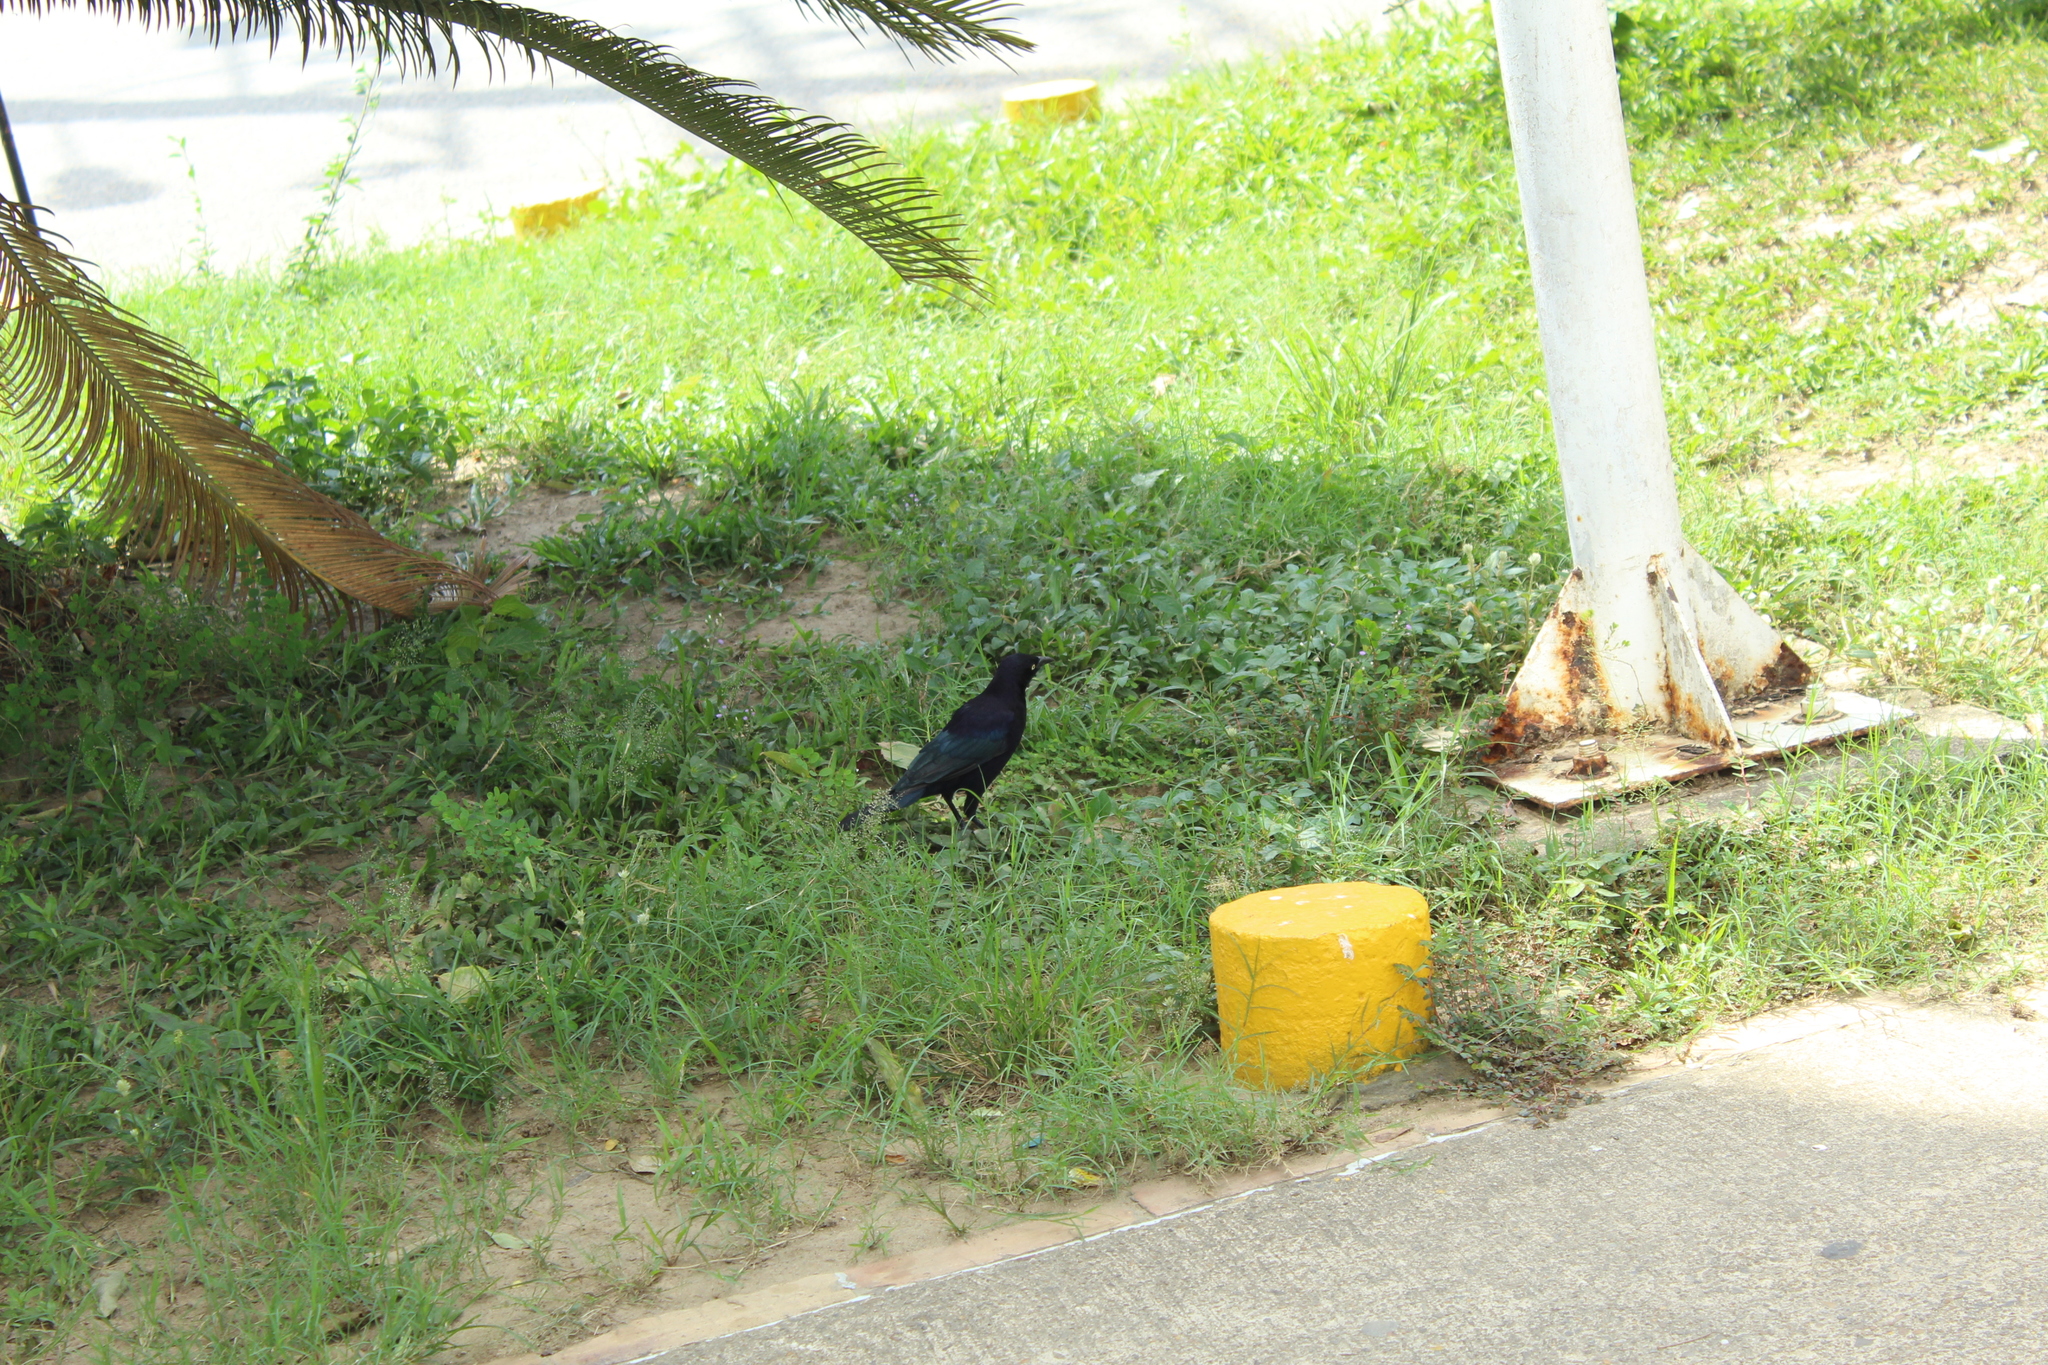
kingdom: Animalia
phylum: Chordata
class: Aves
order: Passeriformes
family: Icteridae
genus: Quiscalus
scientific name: Quiscalus mexicanus
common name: Great-tailed grackle
